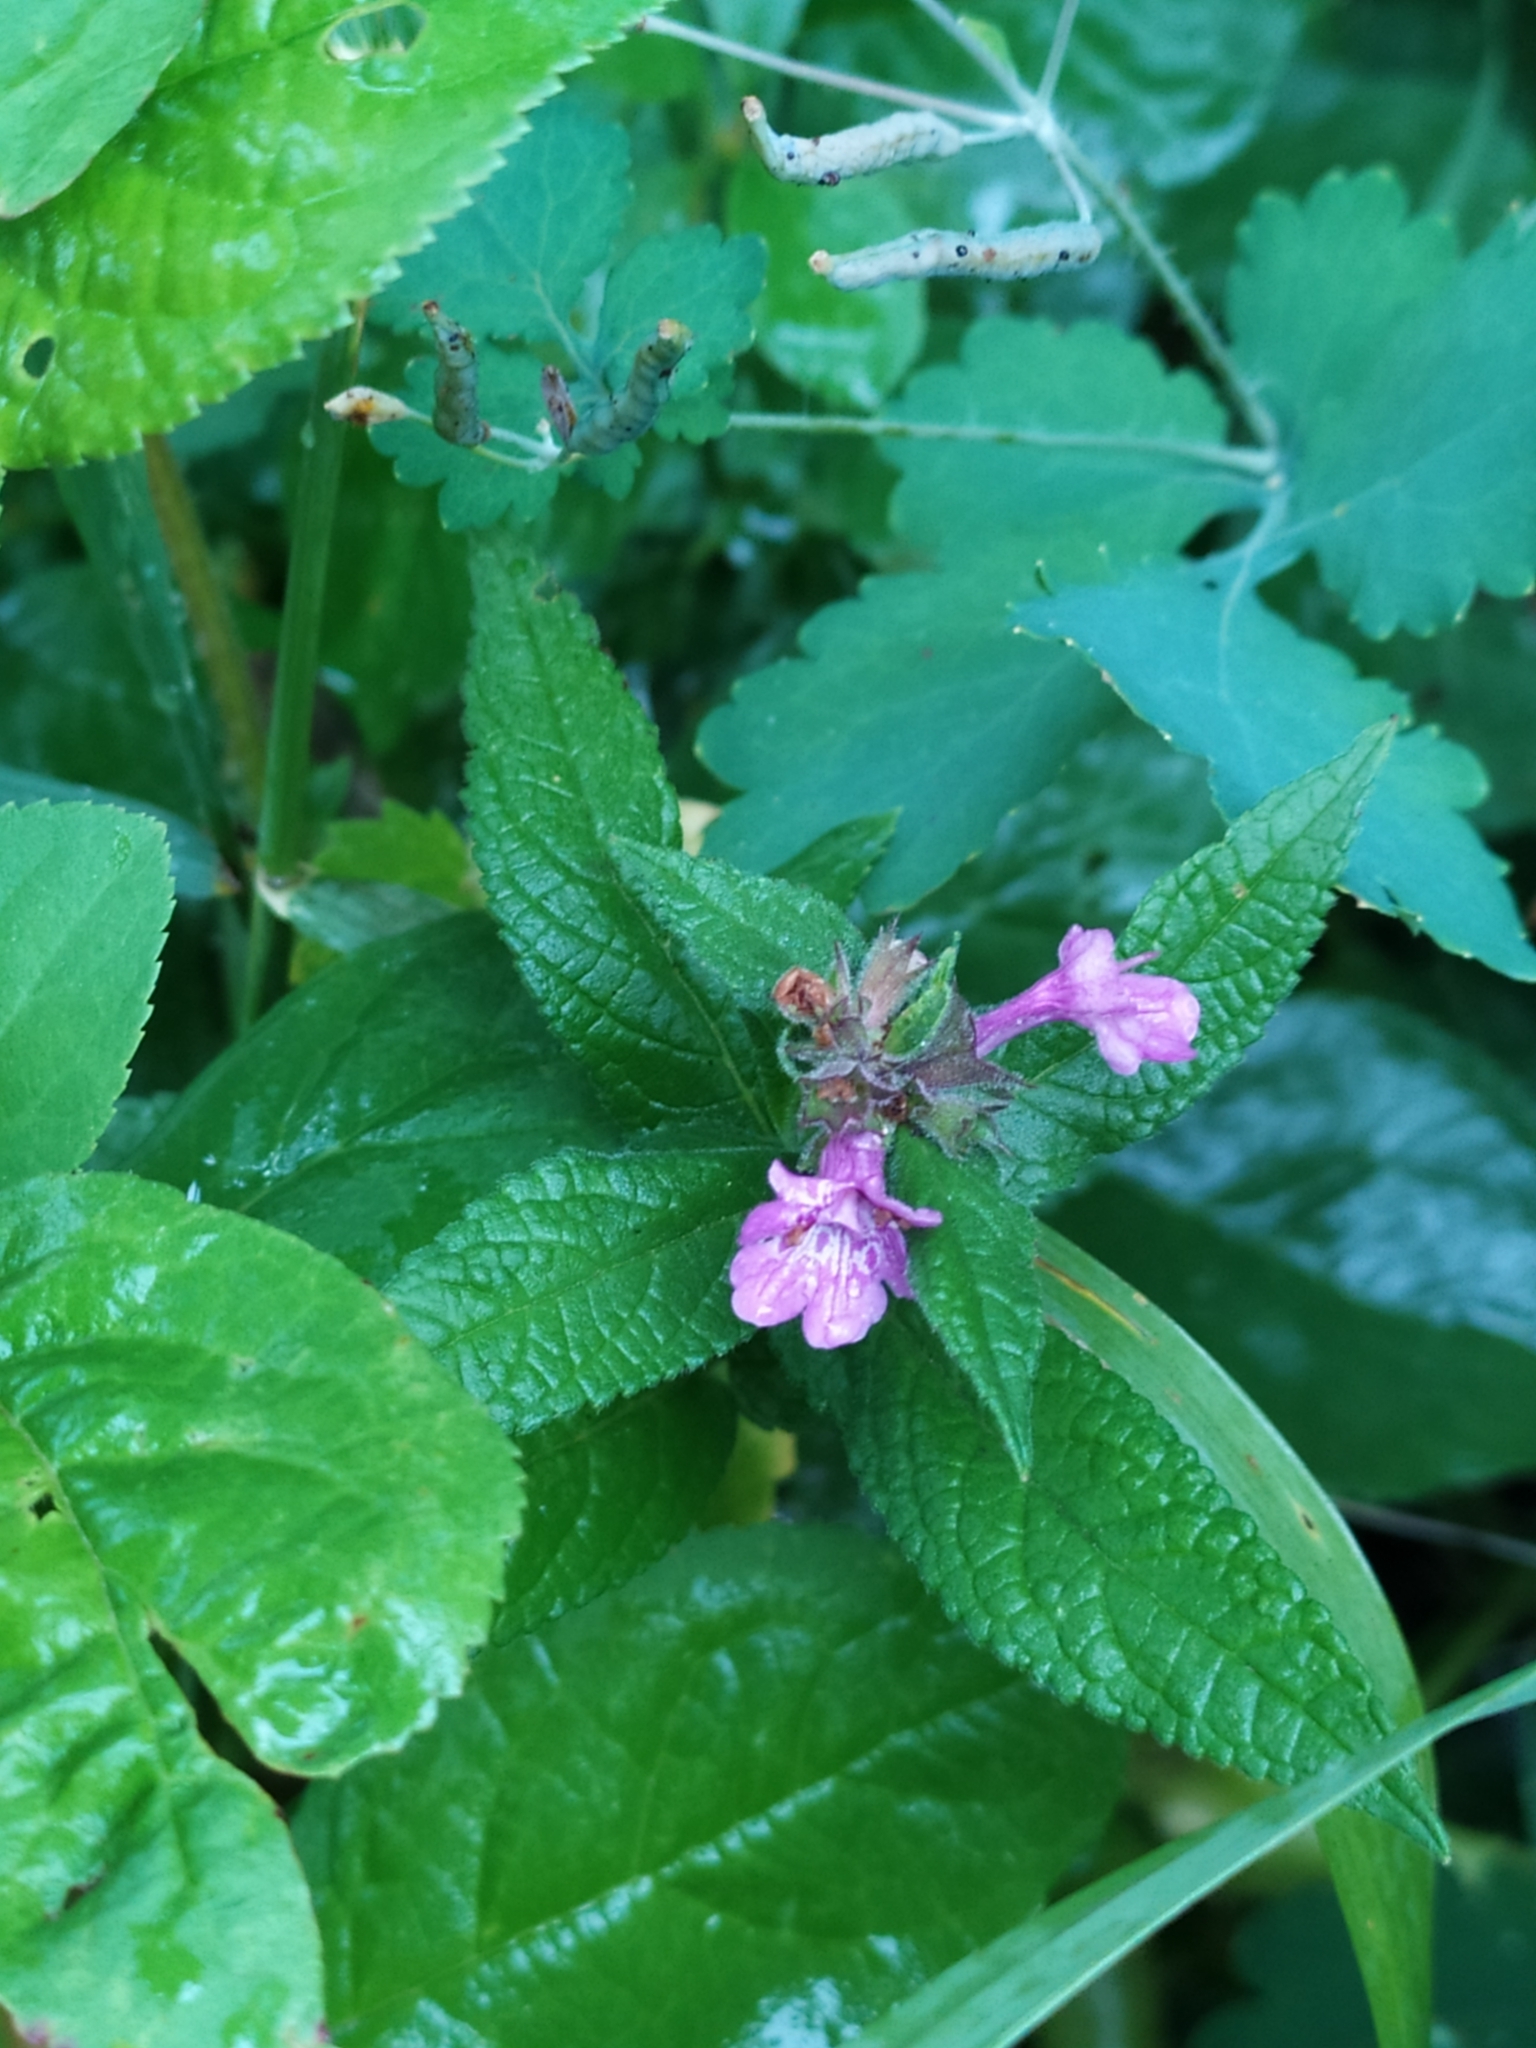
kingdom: Plantae
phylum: Tracheophyta
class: Magnoliopsida
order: Lamiales
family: Lamiaceae
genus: Stachys
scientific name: Stachys palustris
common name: Marsh woundwort
